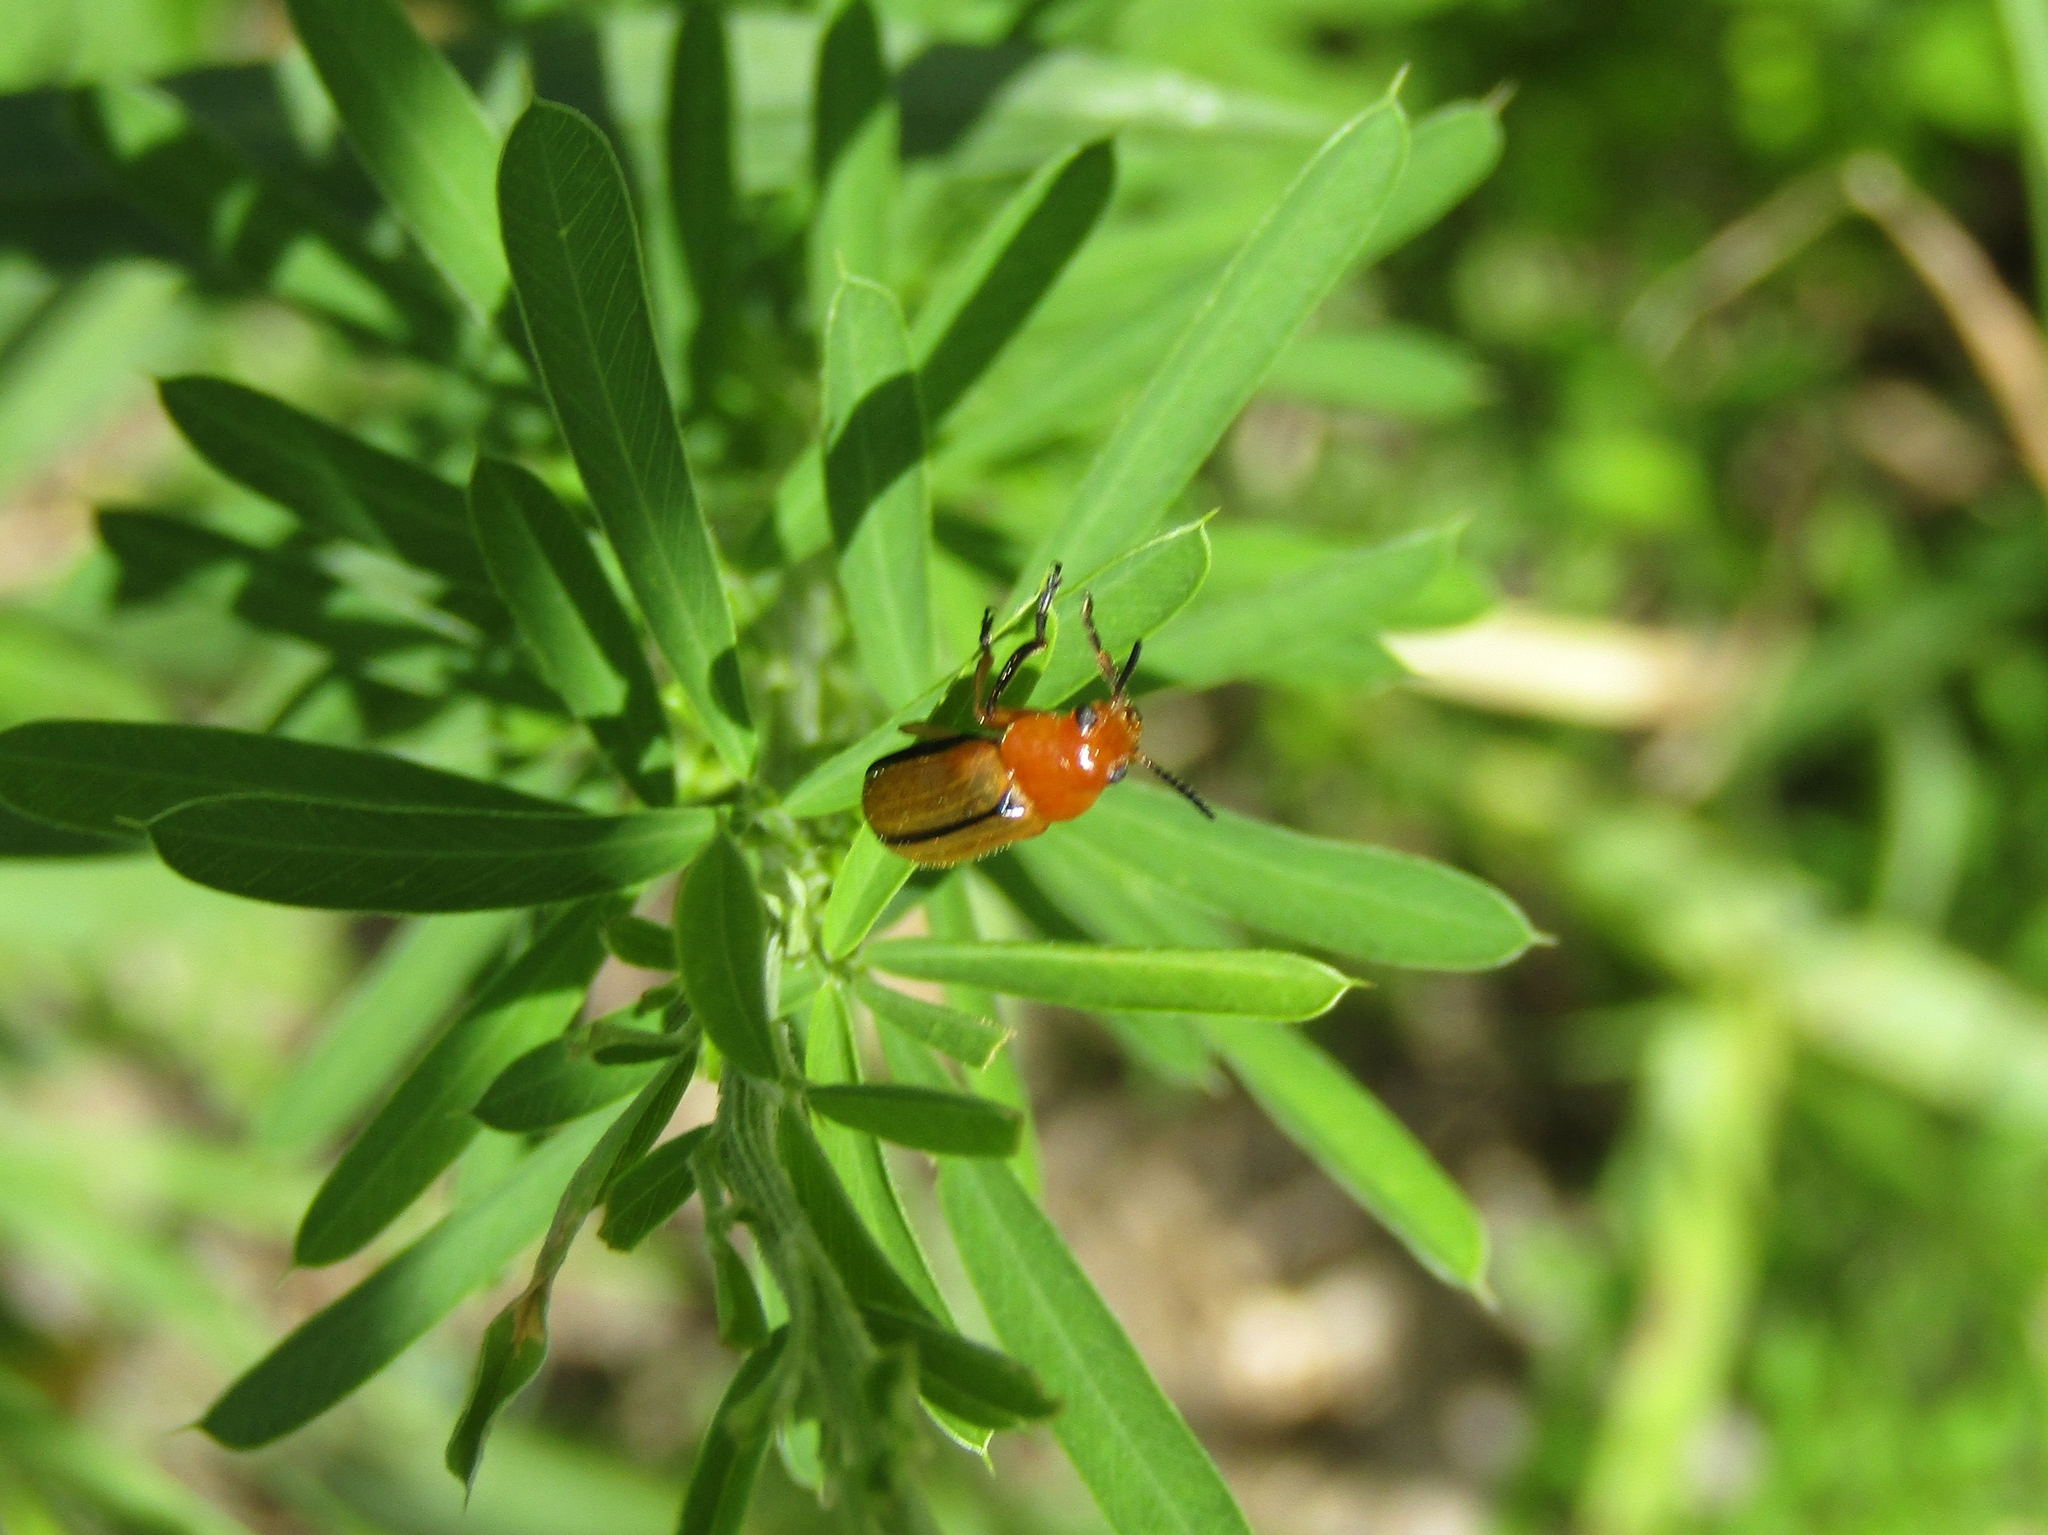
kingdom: Animalia
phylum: Arthropoda
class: Insecta
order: Coleoptera
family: Chrysomelidae
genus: Anomoea
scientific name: Anomoea laticlavia
